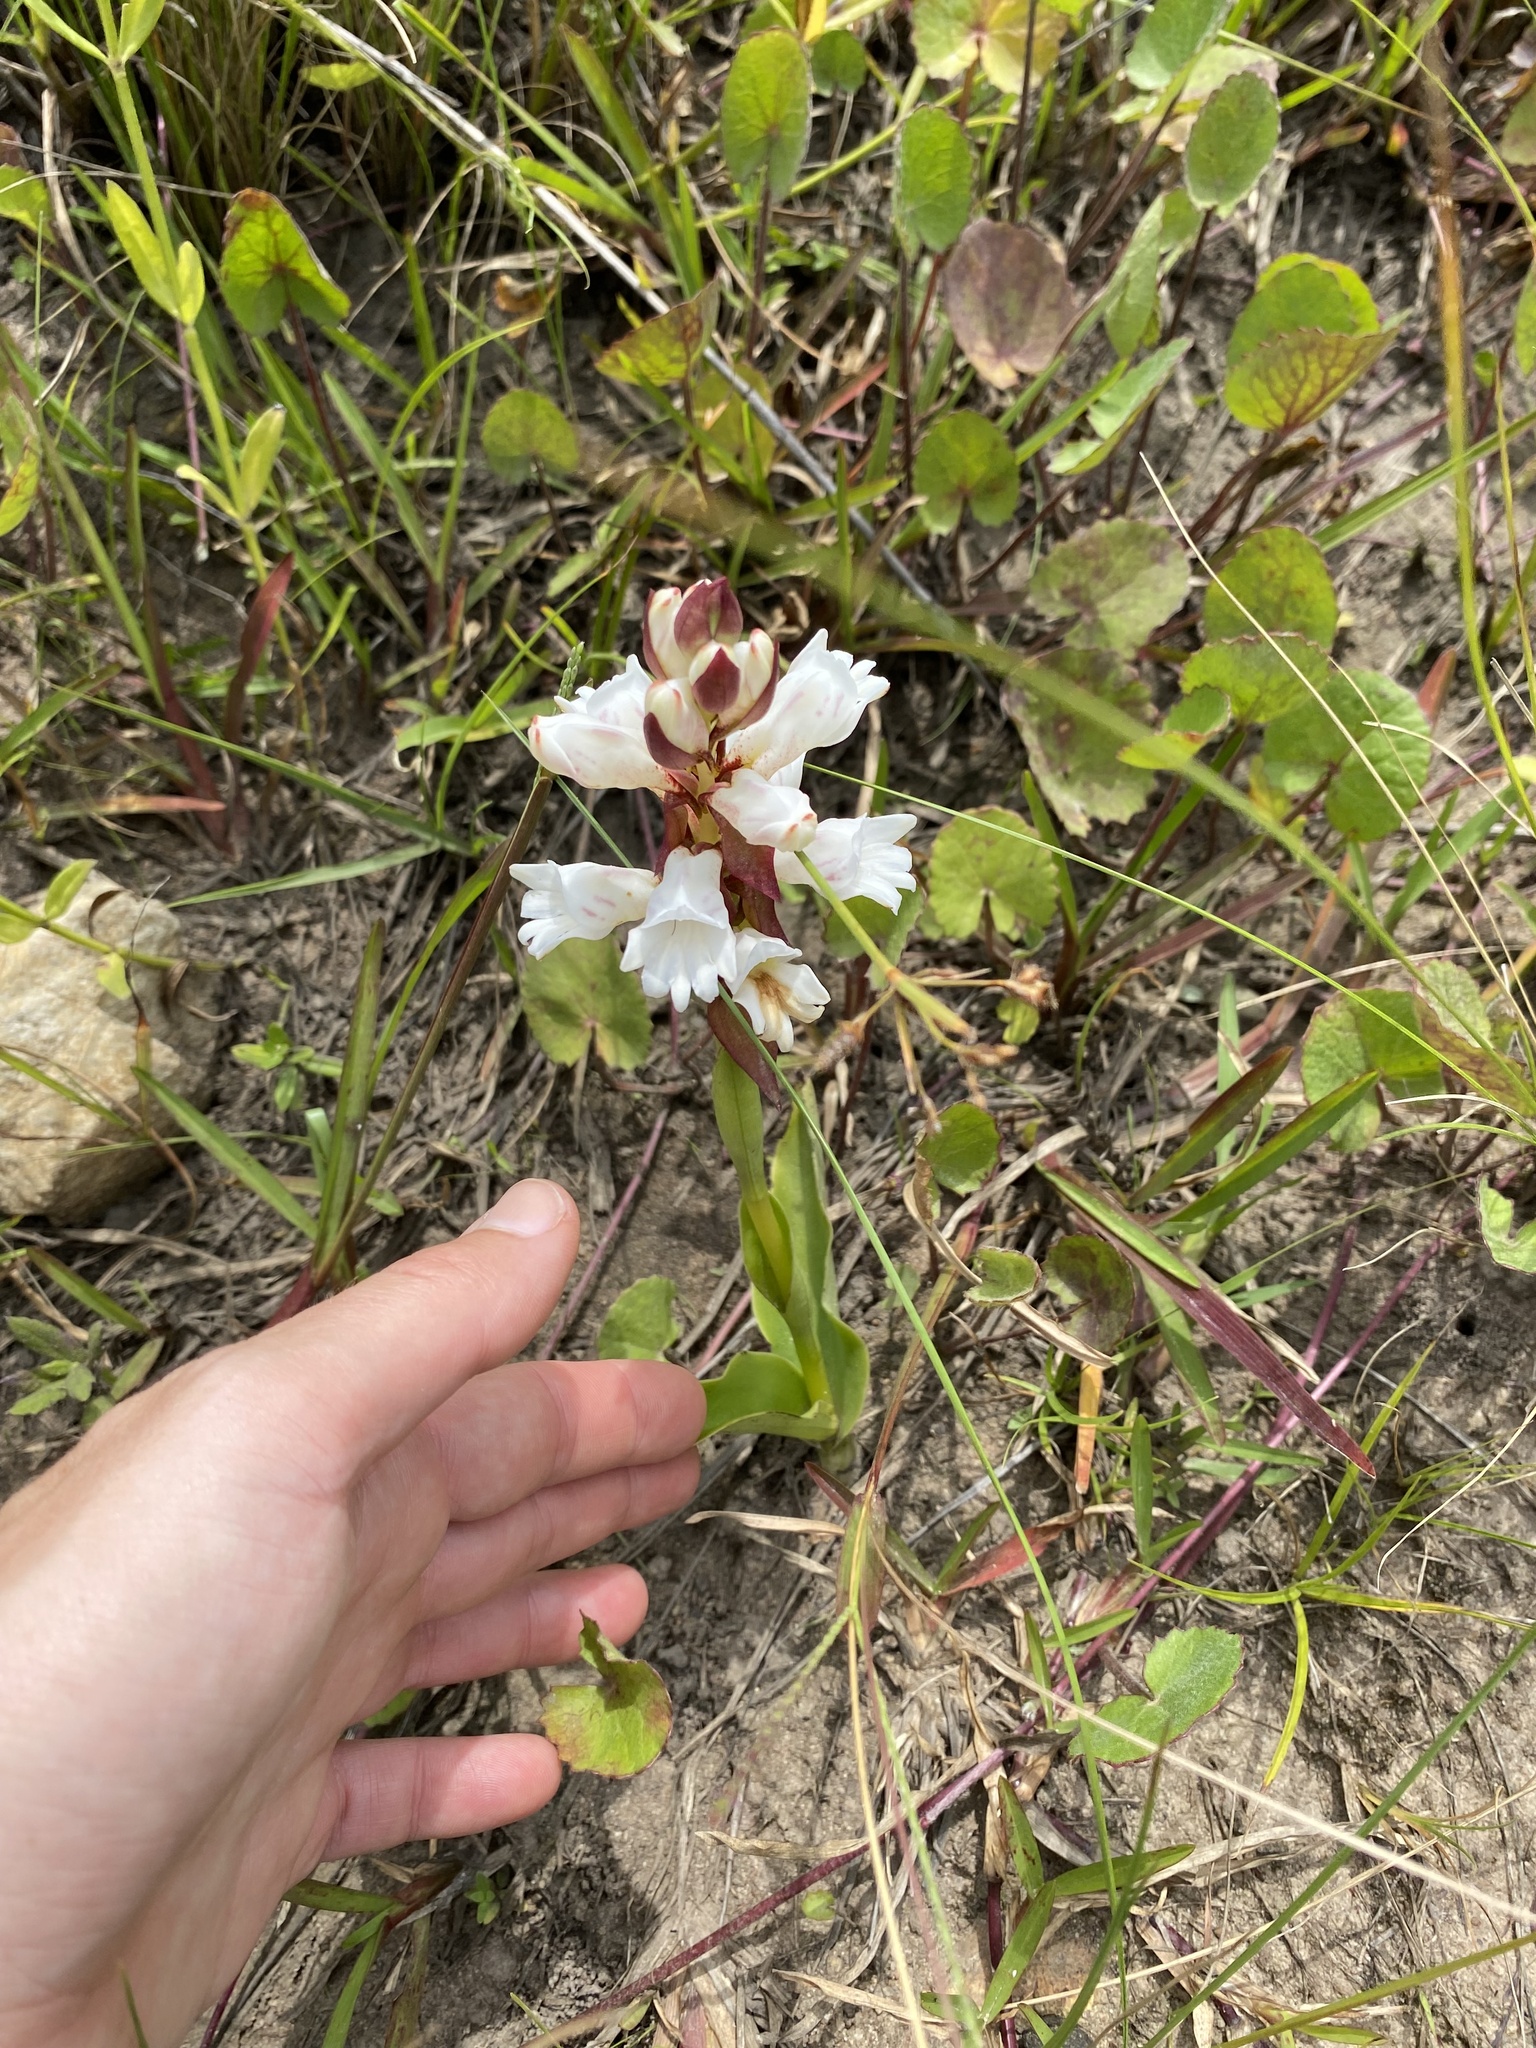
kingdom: Plantae
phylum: Tracheophyta
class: Liliopsida
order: Asparagales
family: Orchidaceae
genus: Satyrium
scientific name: Satyrium sphaerocarpum
